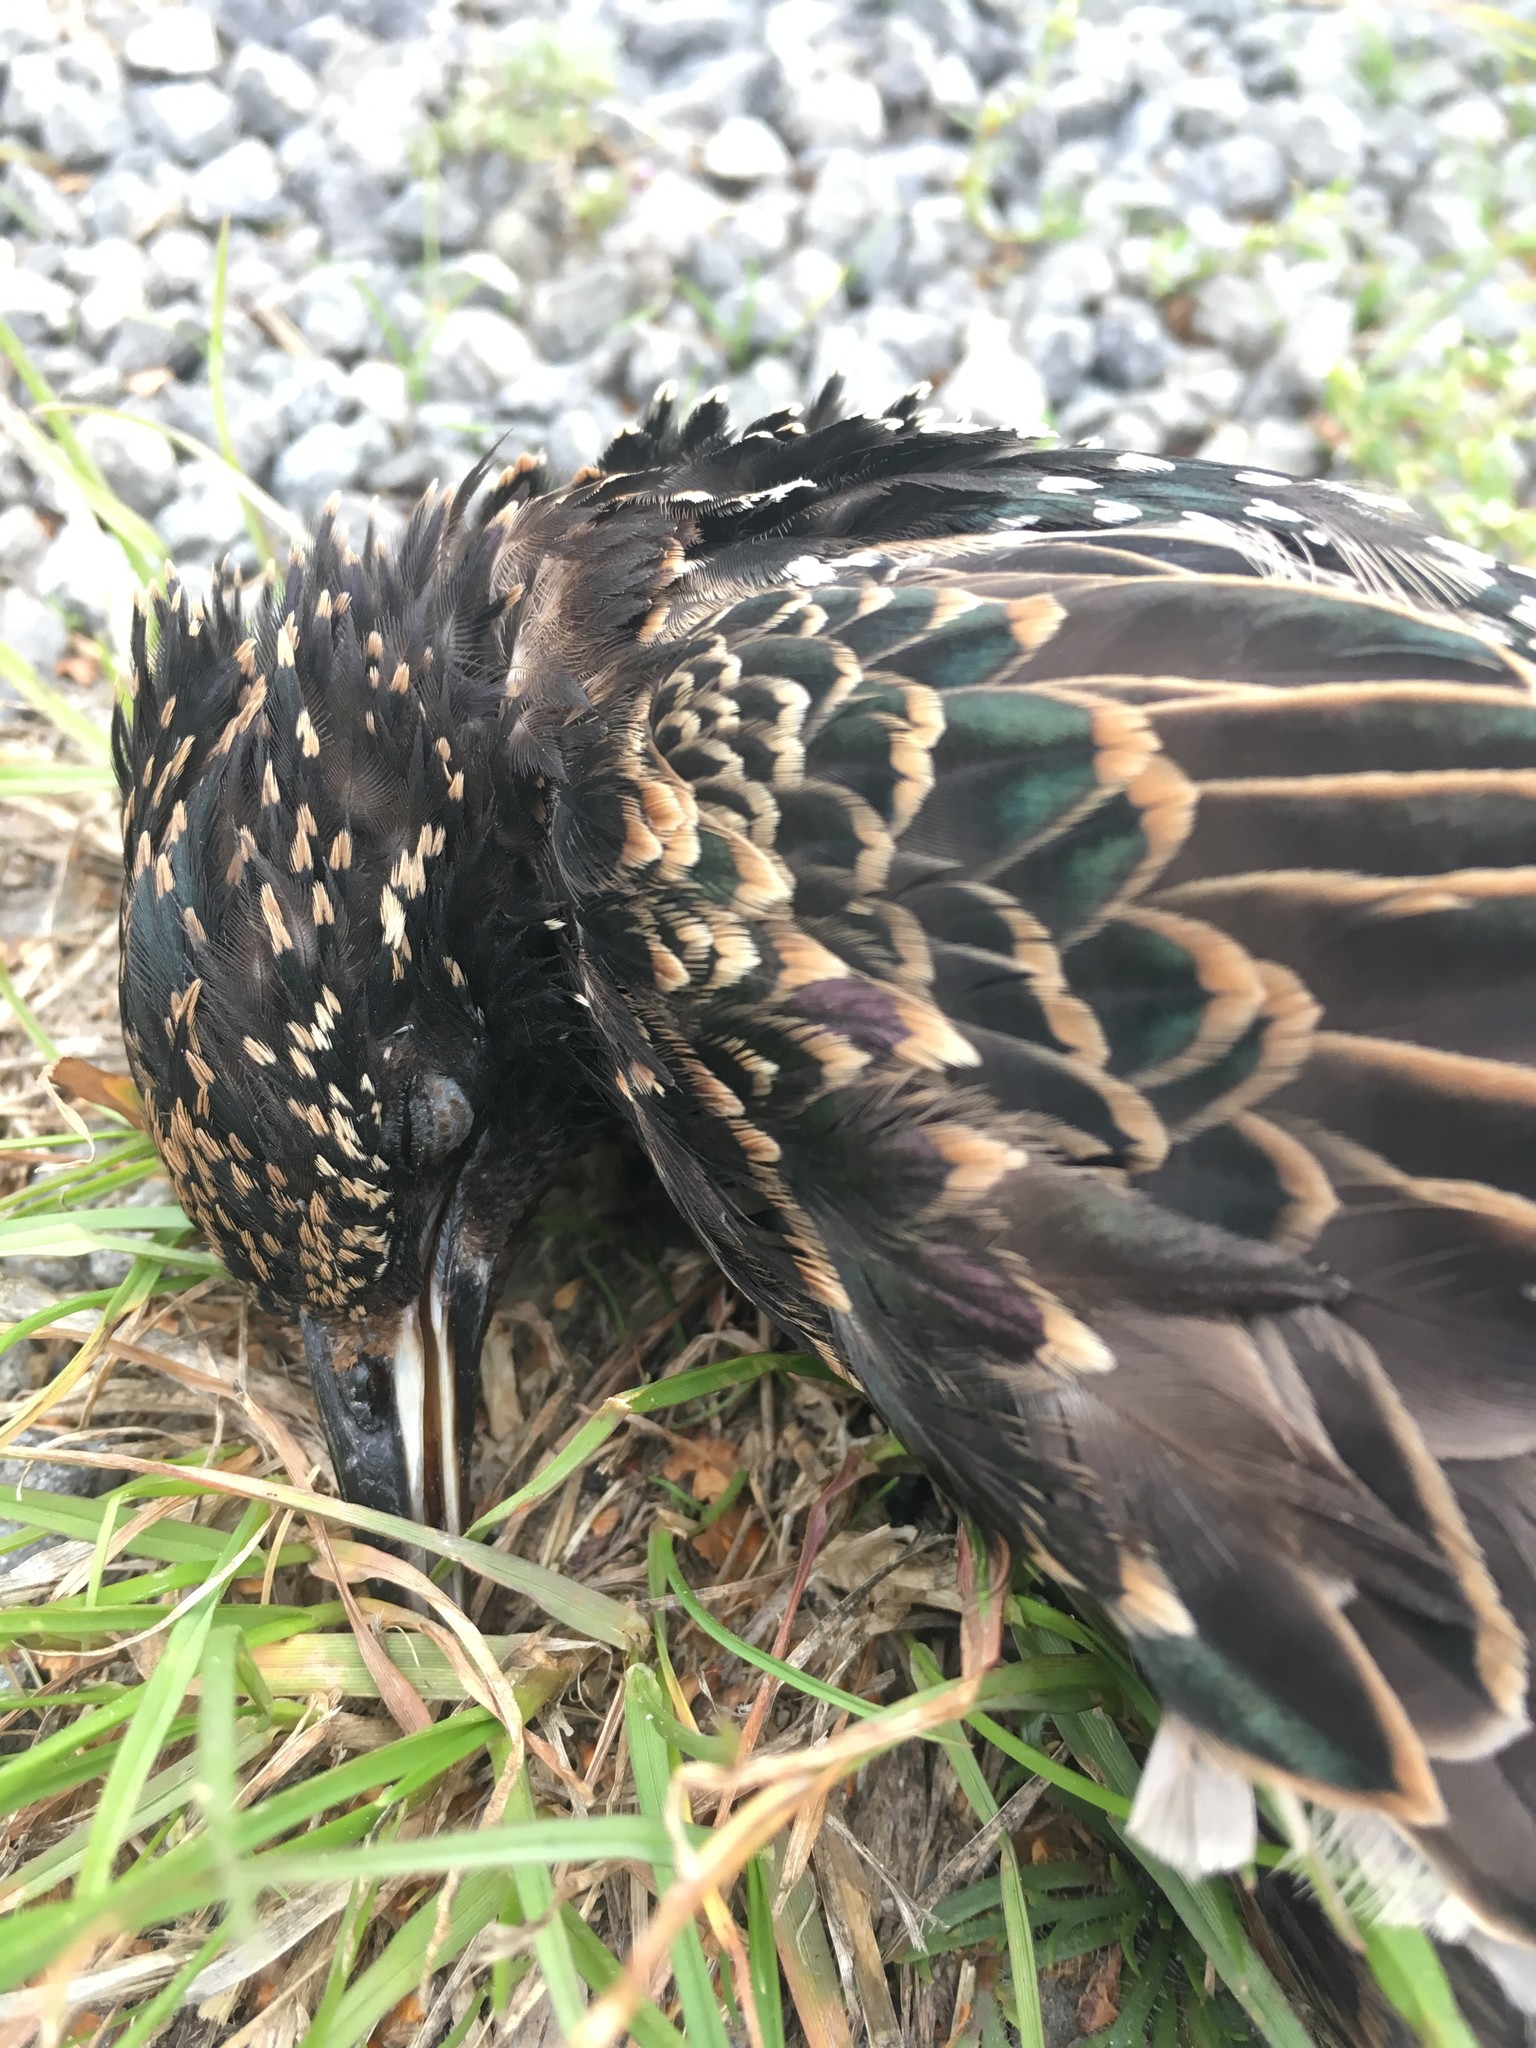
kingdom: Animalia
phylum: Chordata
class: Aves
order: Passeriformes
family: Sturnidae
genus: Sturnus
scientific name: Sturnus vulgaris
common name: Common starling
